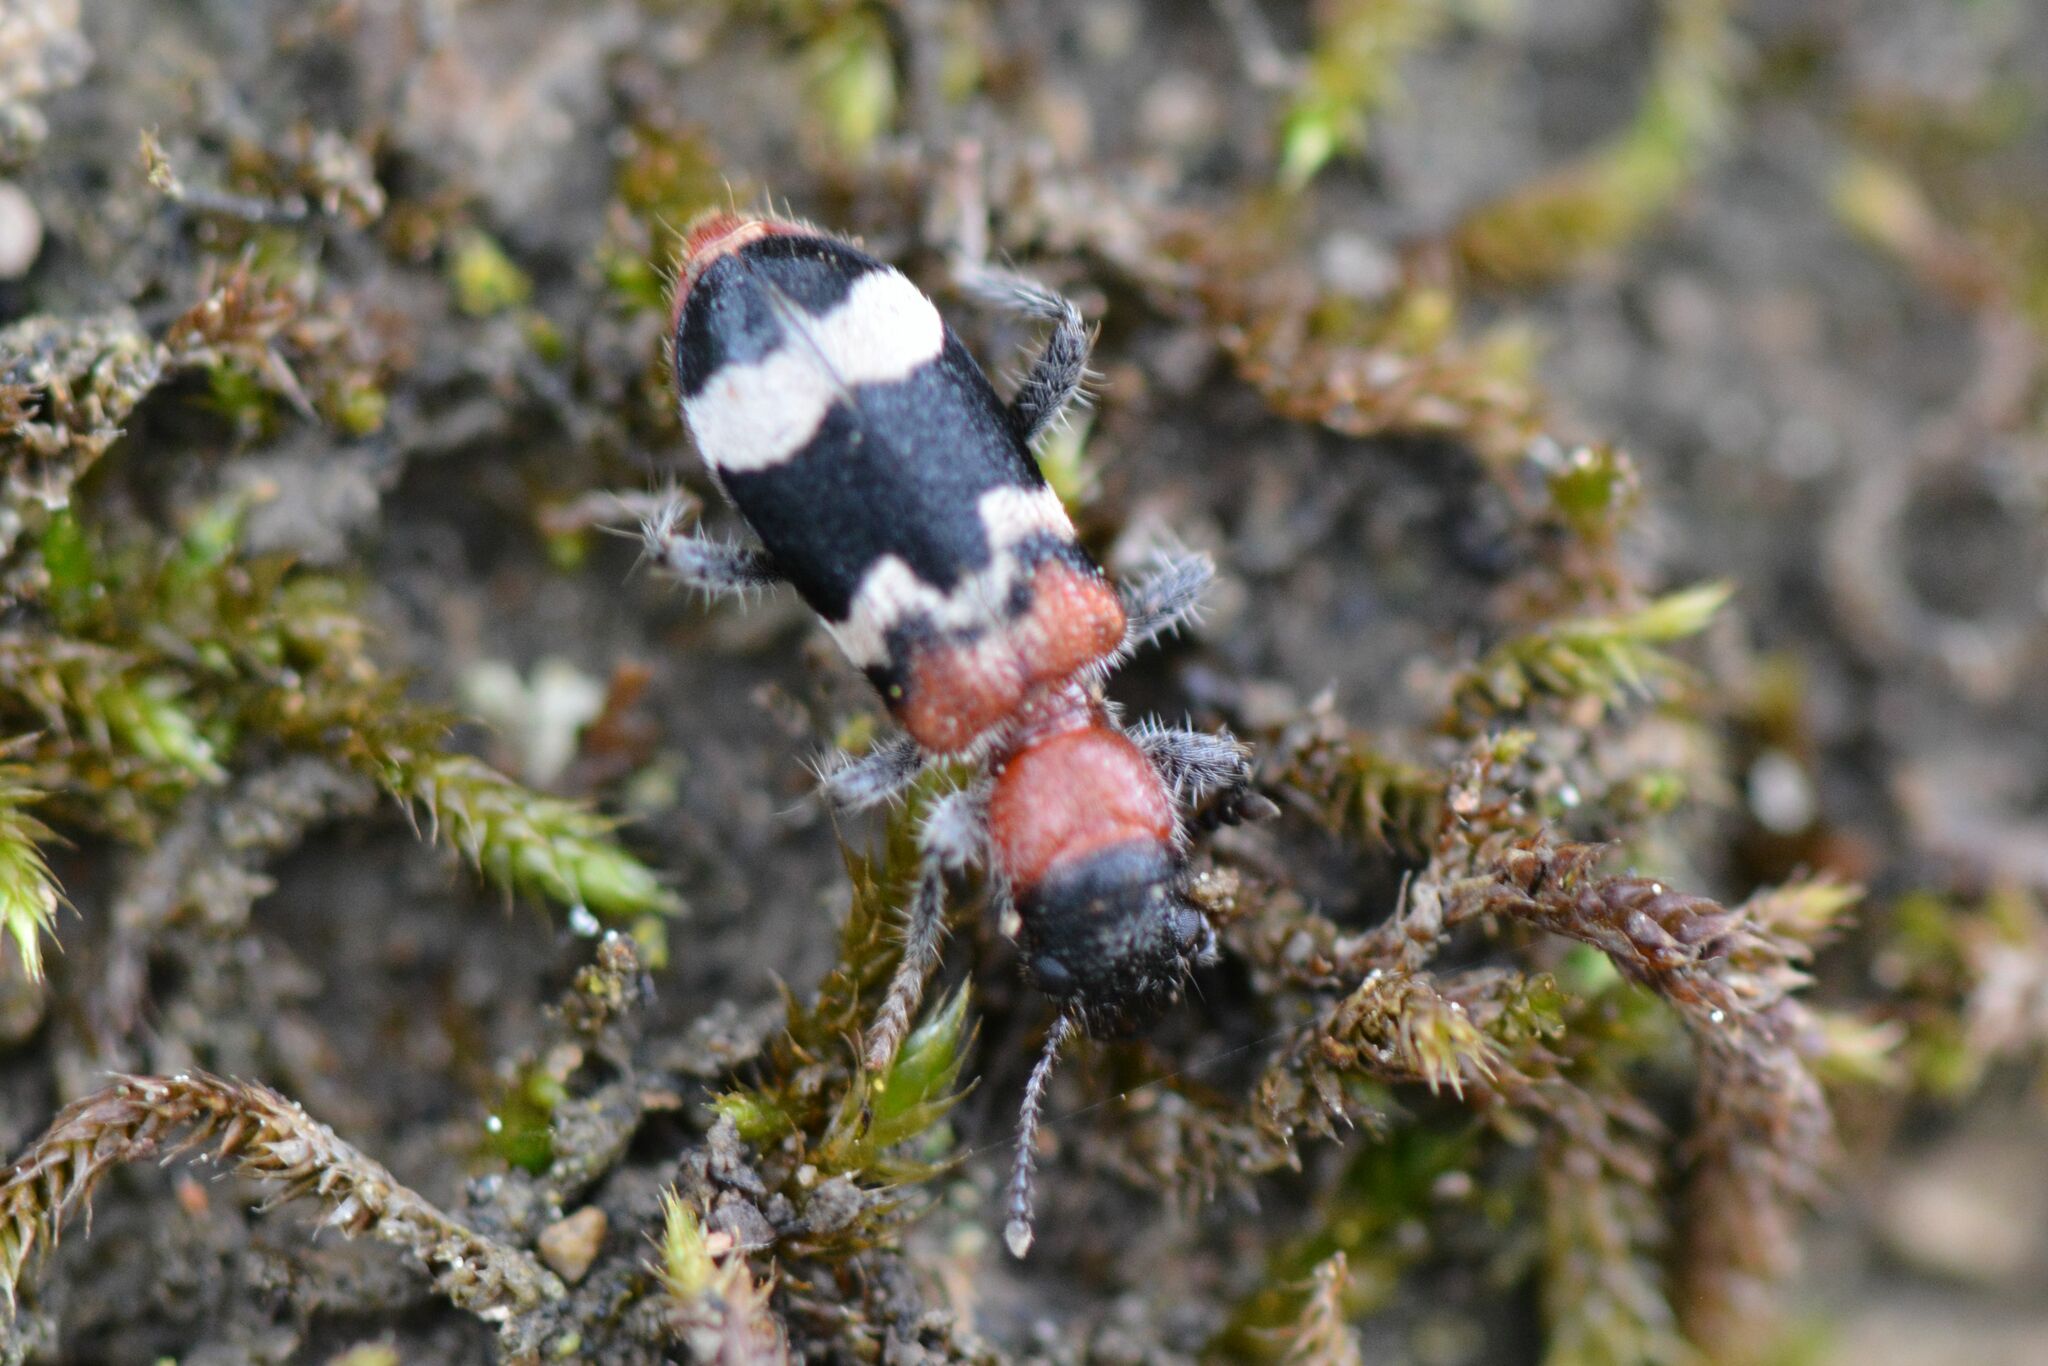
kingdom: Animalia
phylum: Arthropoda
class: Insecta
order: Coleoptera
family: Cleridae
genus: Thanasimus
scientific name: Thanasimus formicarius
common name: Ant beetle
